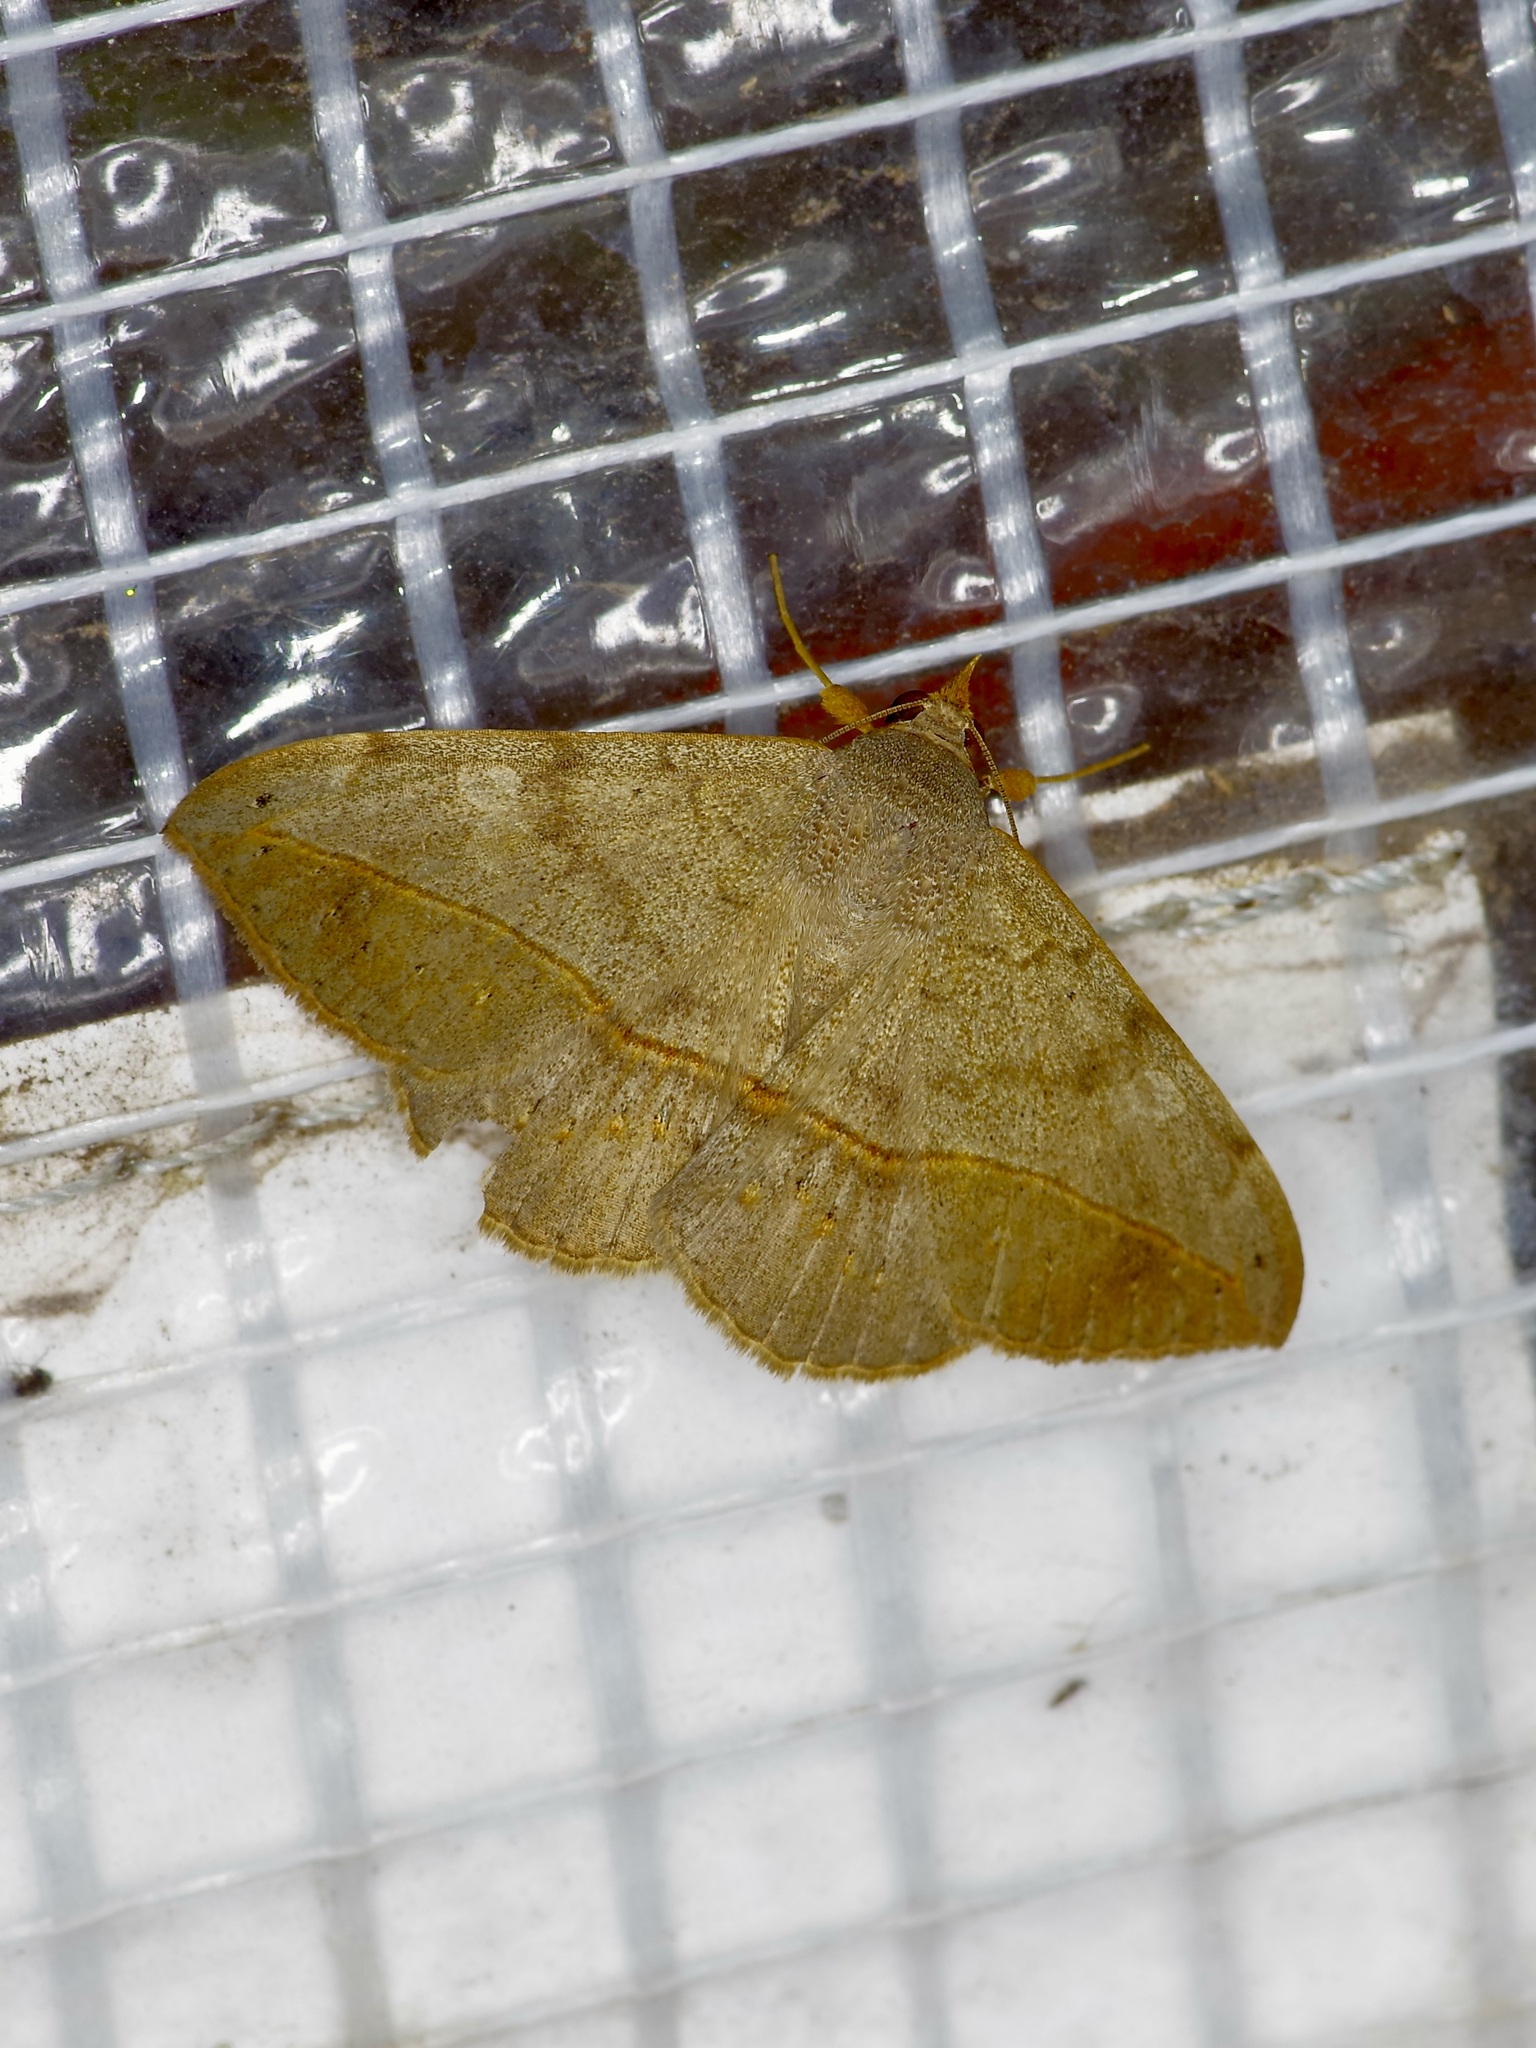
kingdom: Animalia
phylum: Arthropoda
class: Insecta
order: Lepidoptera
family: Erebidae
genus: Anticarsia
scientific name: Anticarsia gemmatalis
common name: Cutworm moth
